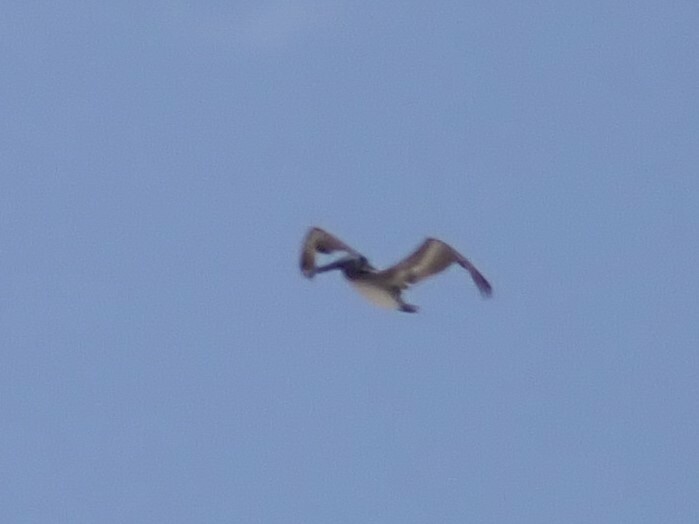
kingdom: Animalia
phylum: Chordata
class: Aves
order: Pelecaniformes
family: Pelecanidae
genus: Pelecanus
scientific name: Pelecanus occidentalis
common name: Brown pelican
